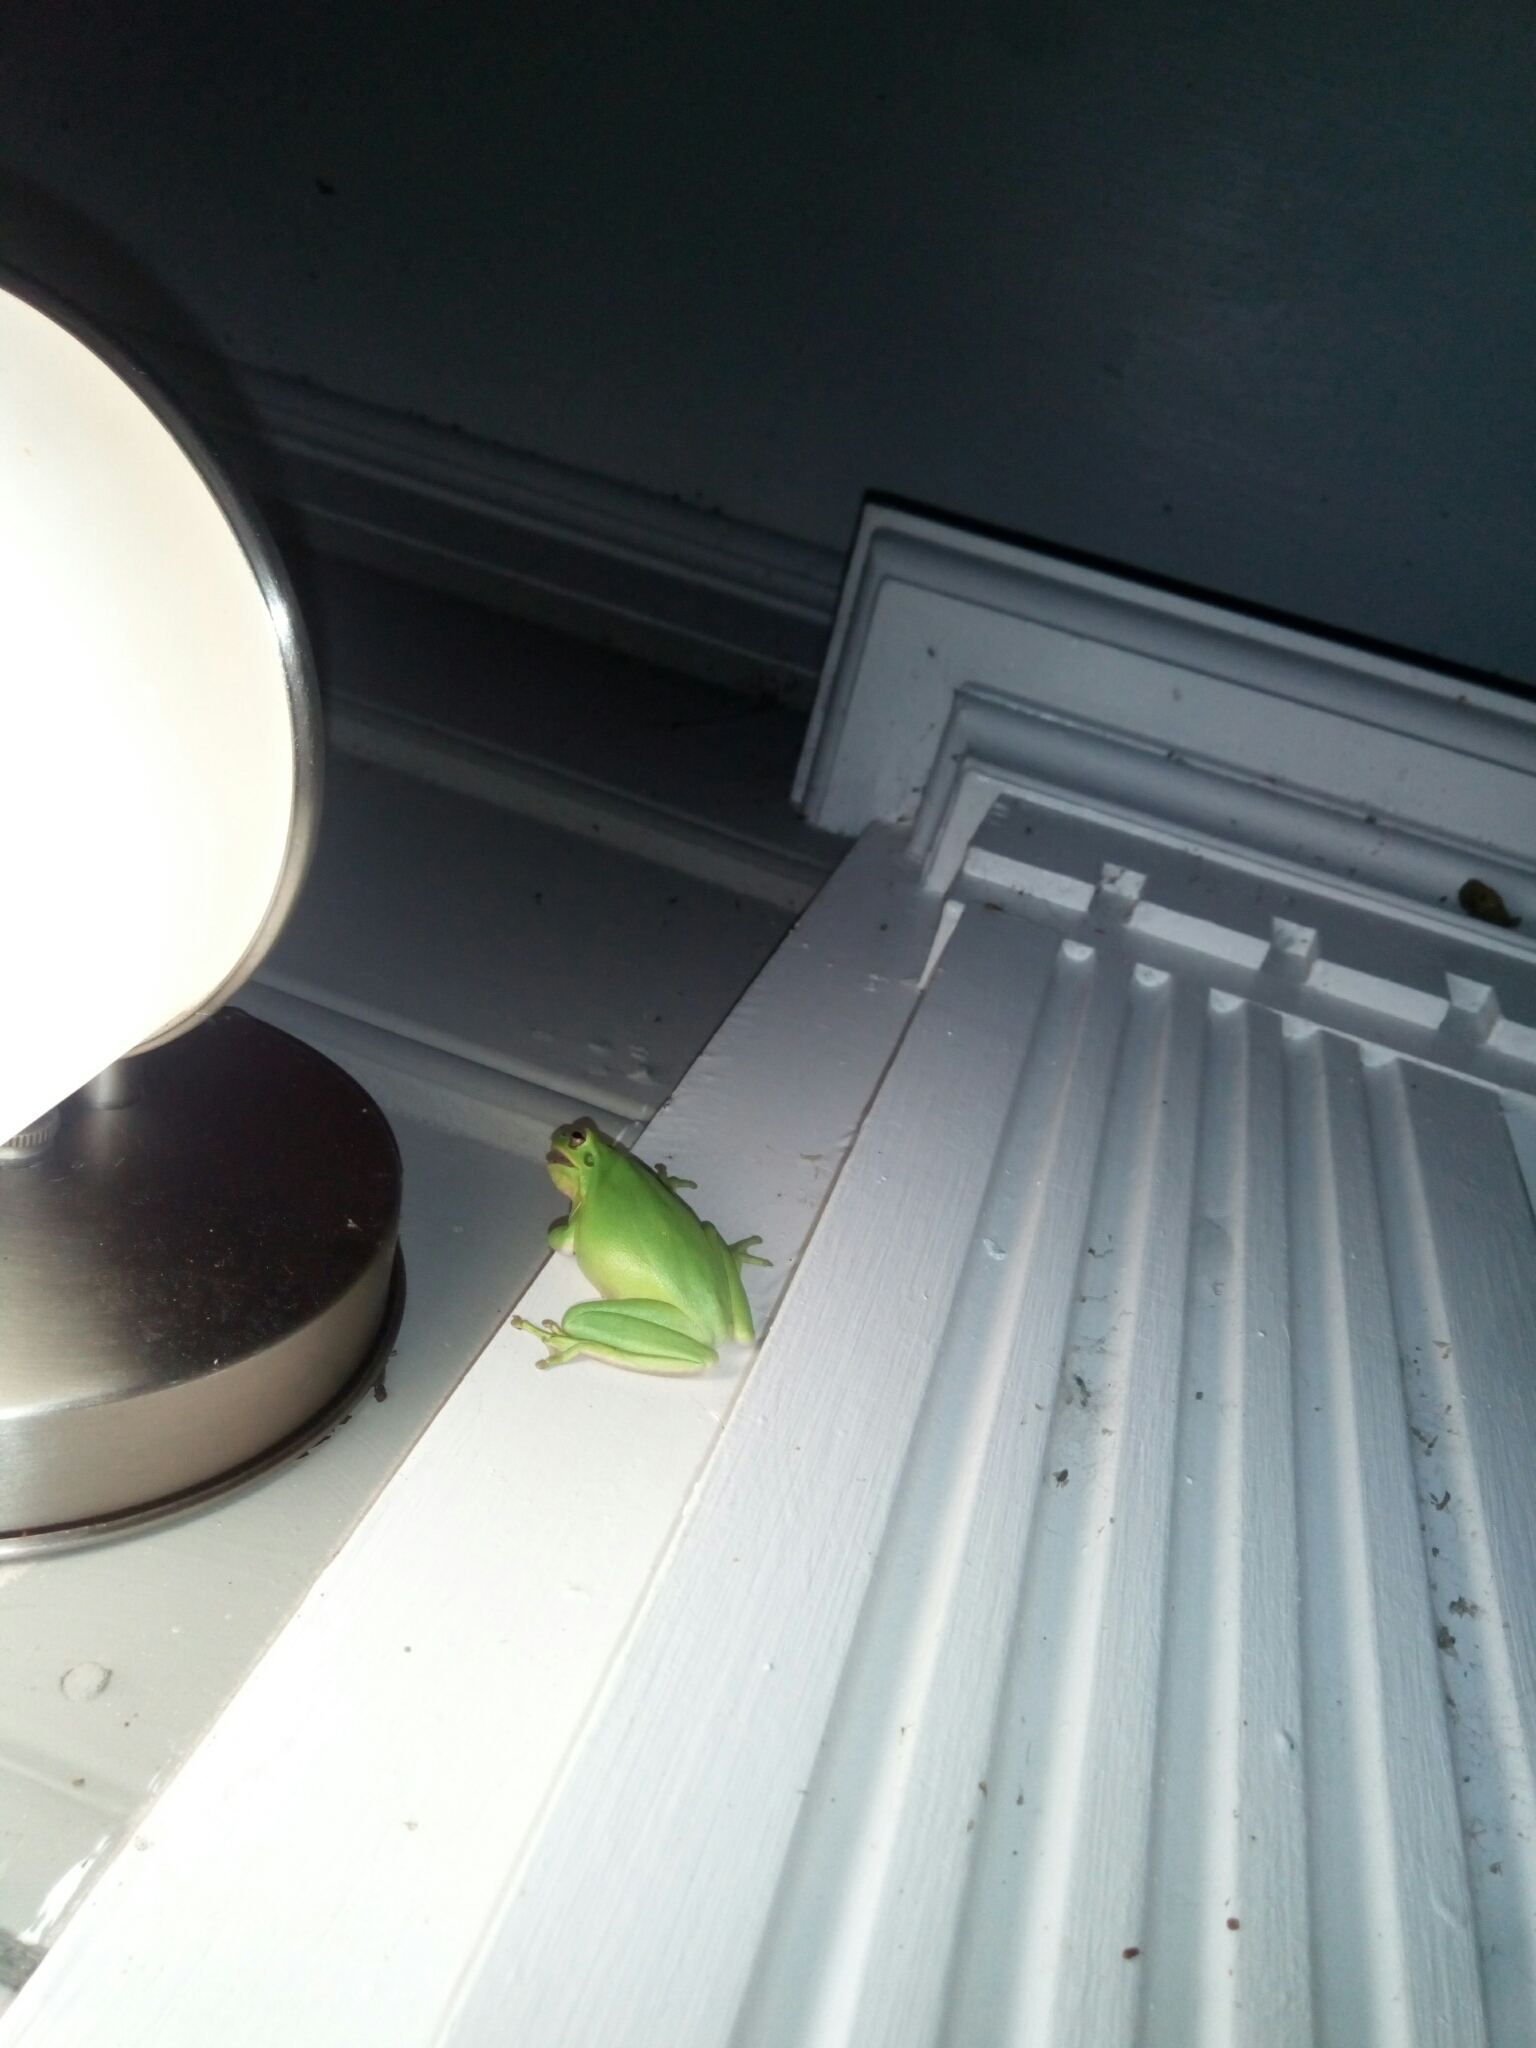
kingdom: Animalia
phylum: Chordata
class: Amphibia
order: Anura
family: Hylidae
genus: Dryophytes
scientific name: Dryophytes squirellus
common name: Squirrel treefrog
